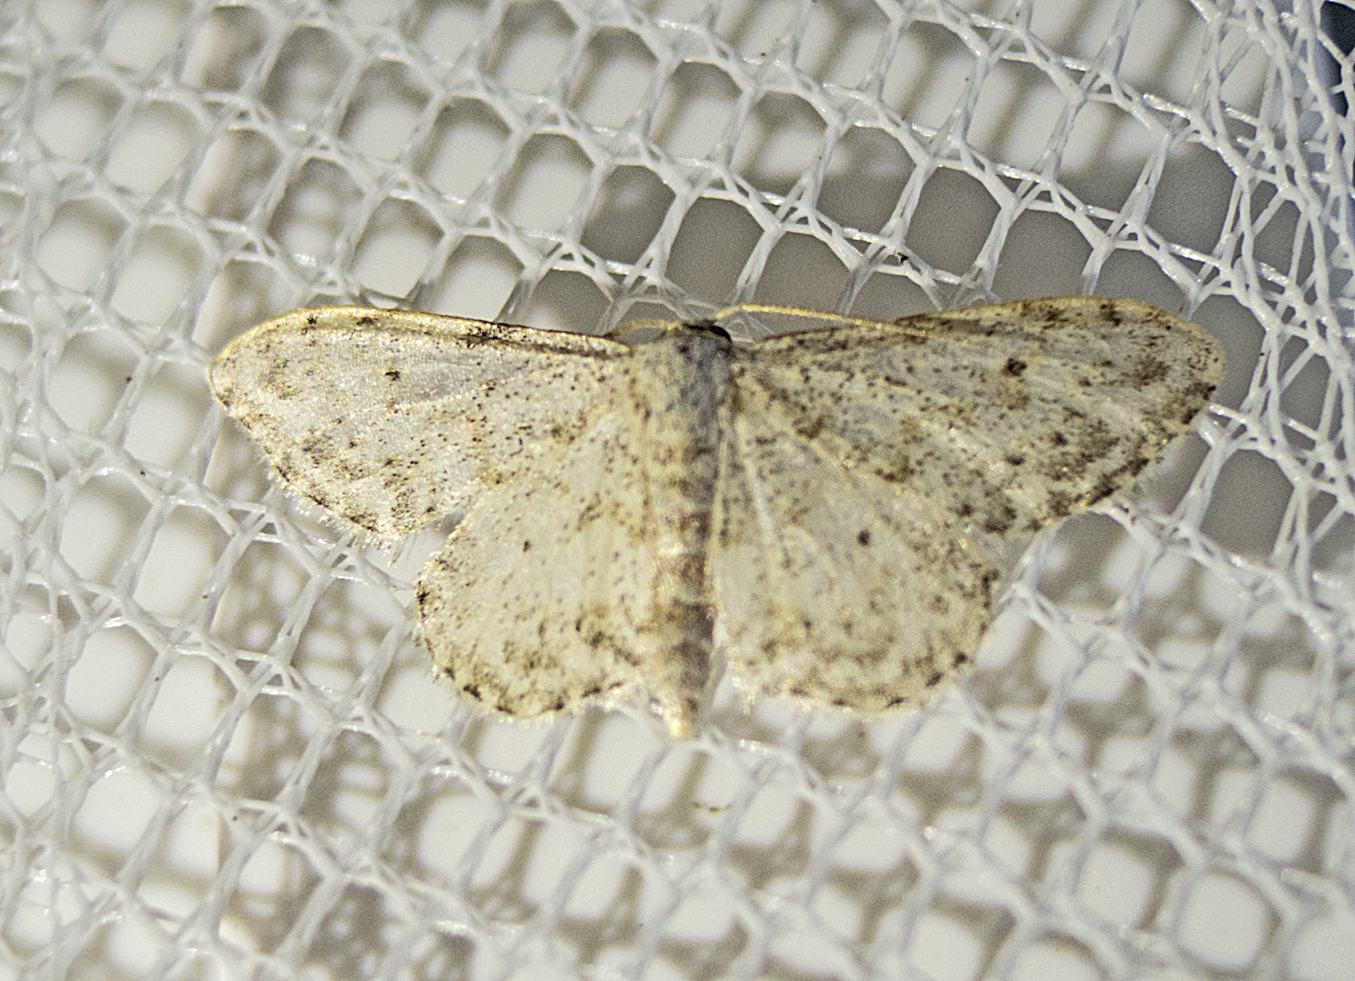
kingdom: Animalia
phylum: Arthropoda
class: Insecta
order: Lepidoptera
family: Geometridae
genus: Idaea
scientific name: Idaea camparia
